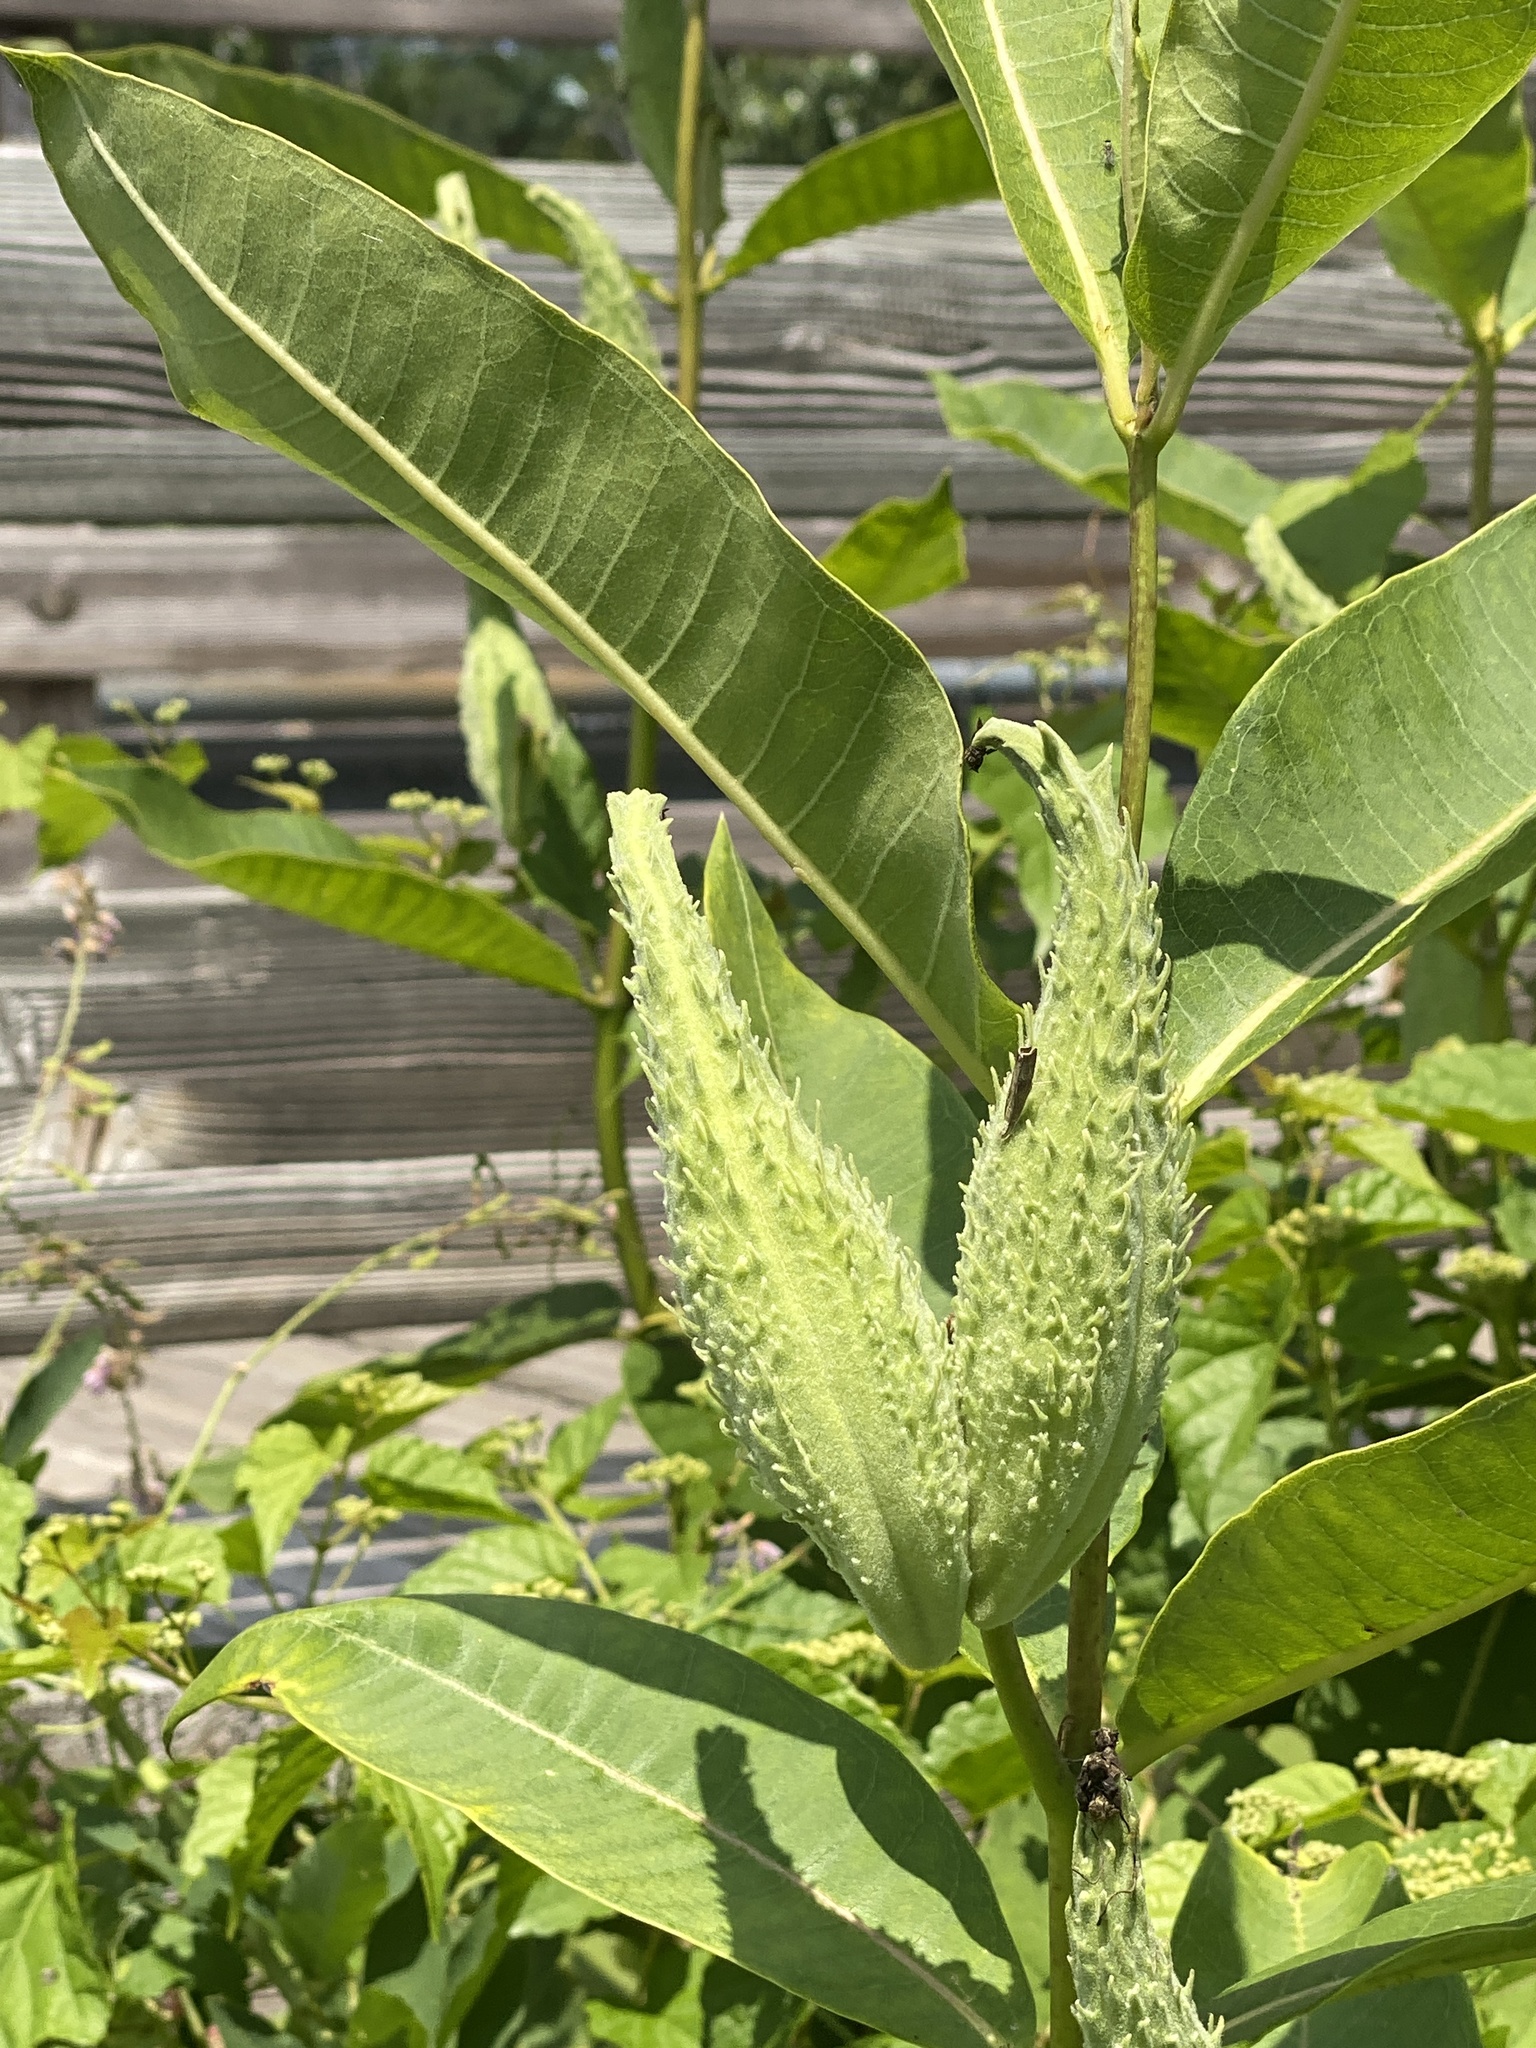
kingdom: Plantae
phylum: Tracheophyta
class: Magnoliopsida
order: Gentianales
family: Apocynaceae
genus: Asclepias
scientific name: Asclepias syriaca
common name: Common milkweed
